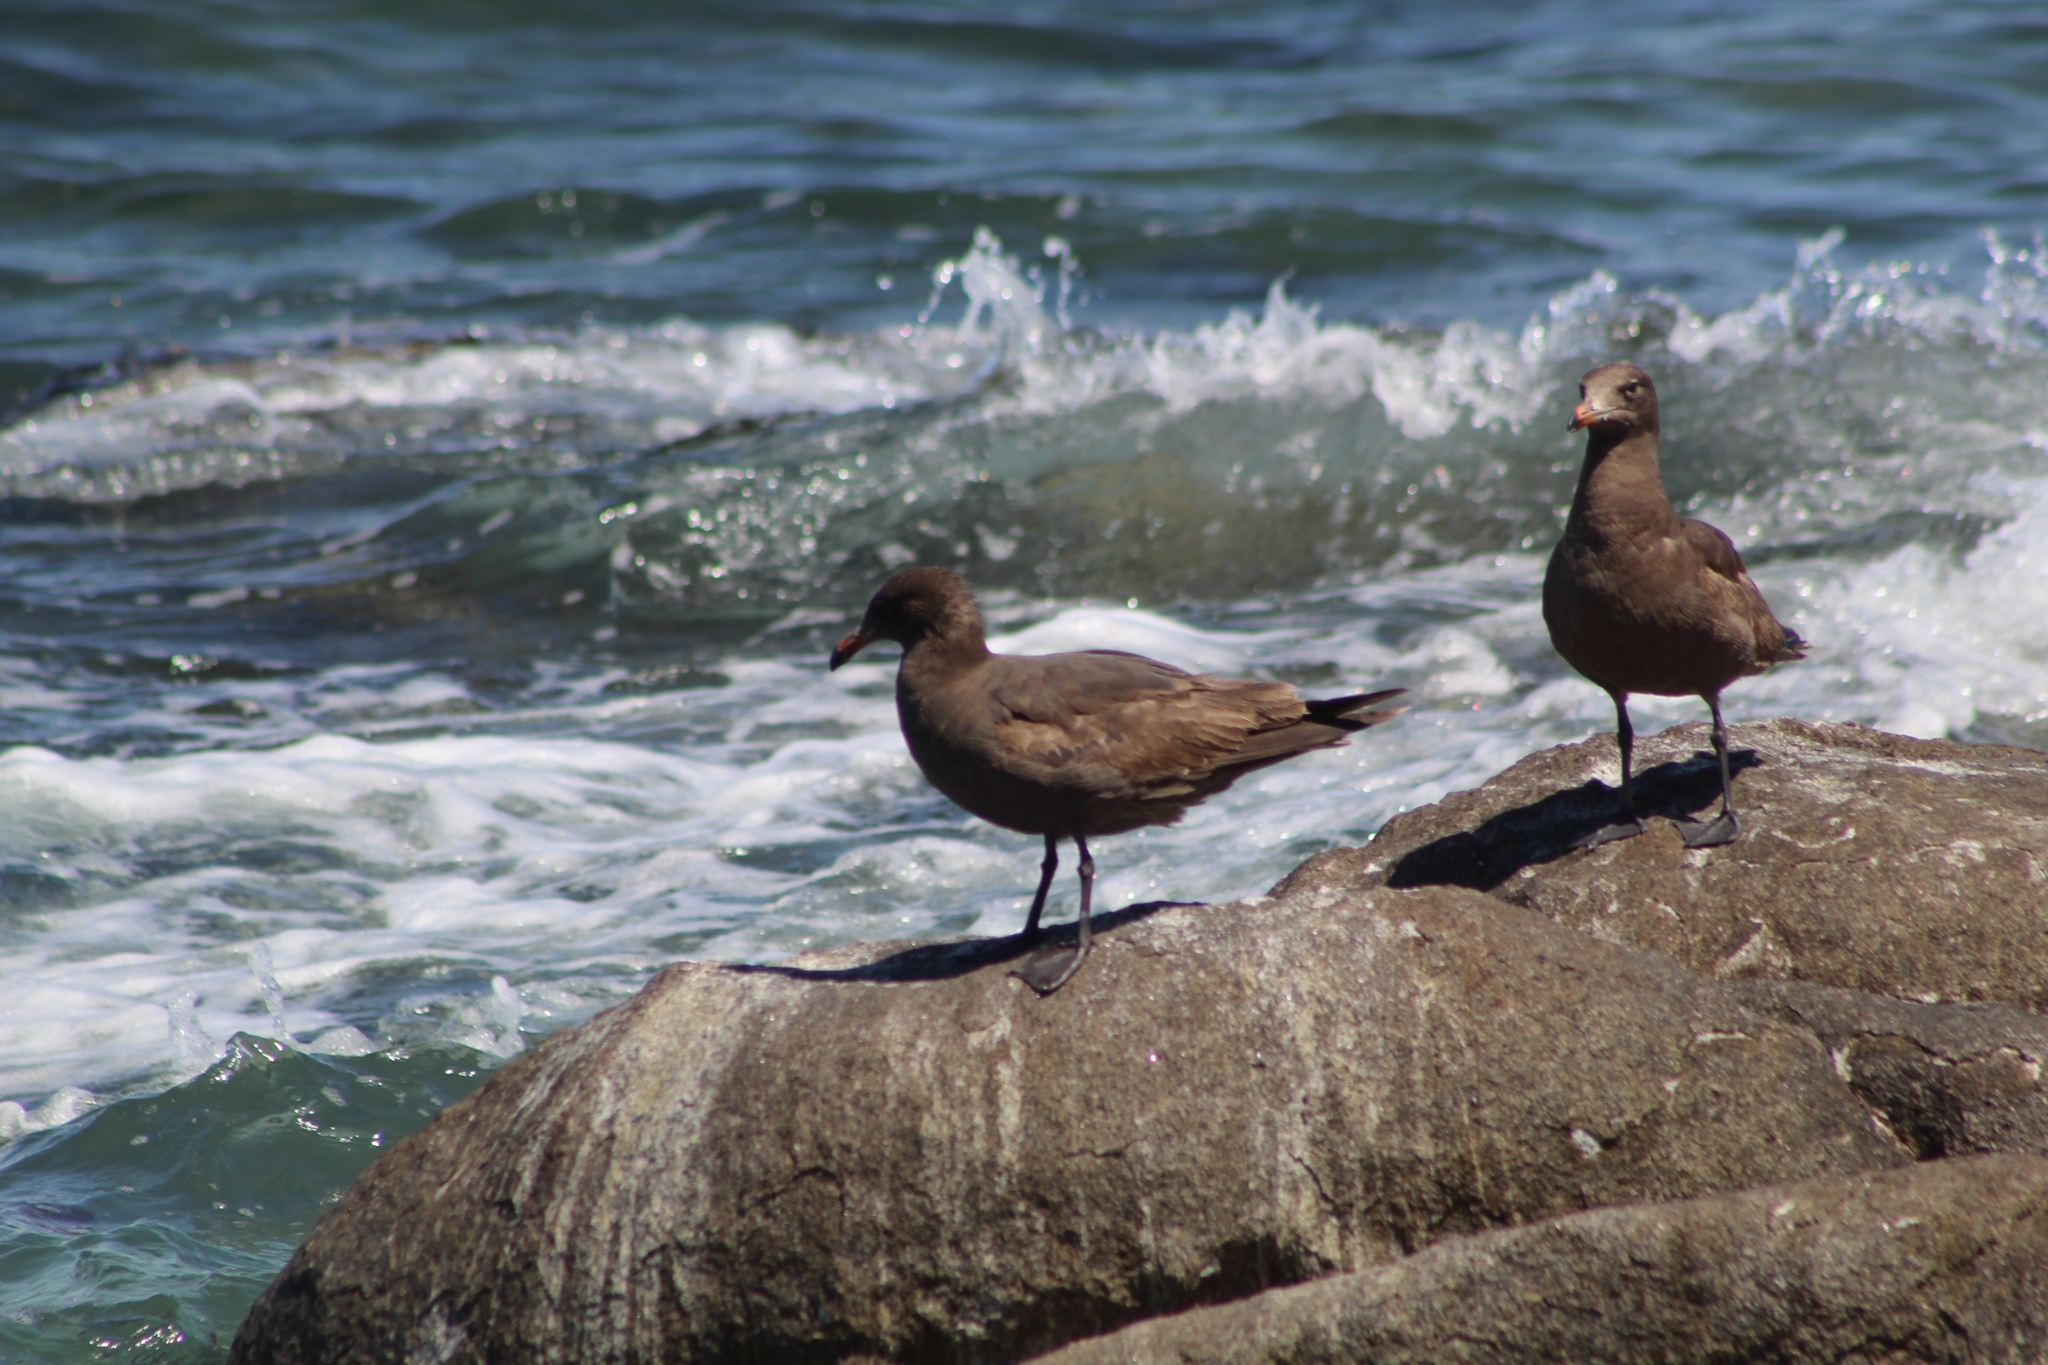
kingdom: Animalia
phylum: Chordata
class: Aves
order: Charadriiformes
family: Laridae
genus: Larus
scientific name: Larus heermanni
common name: Heermann's gull
